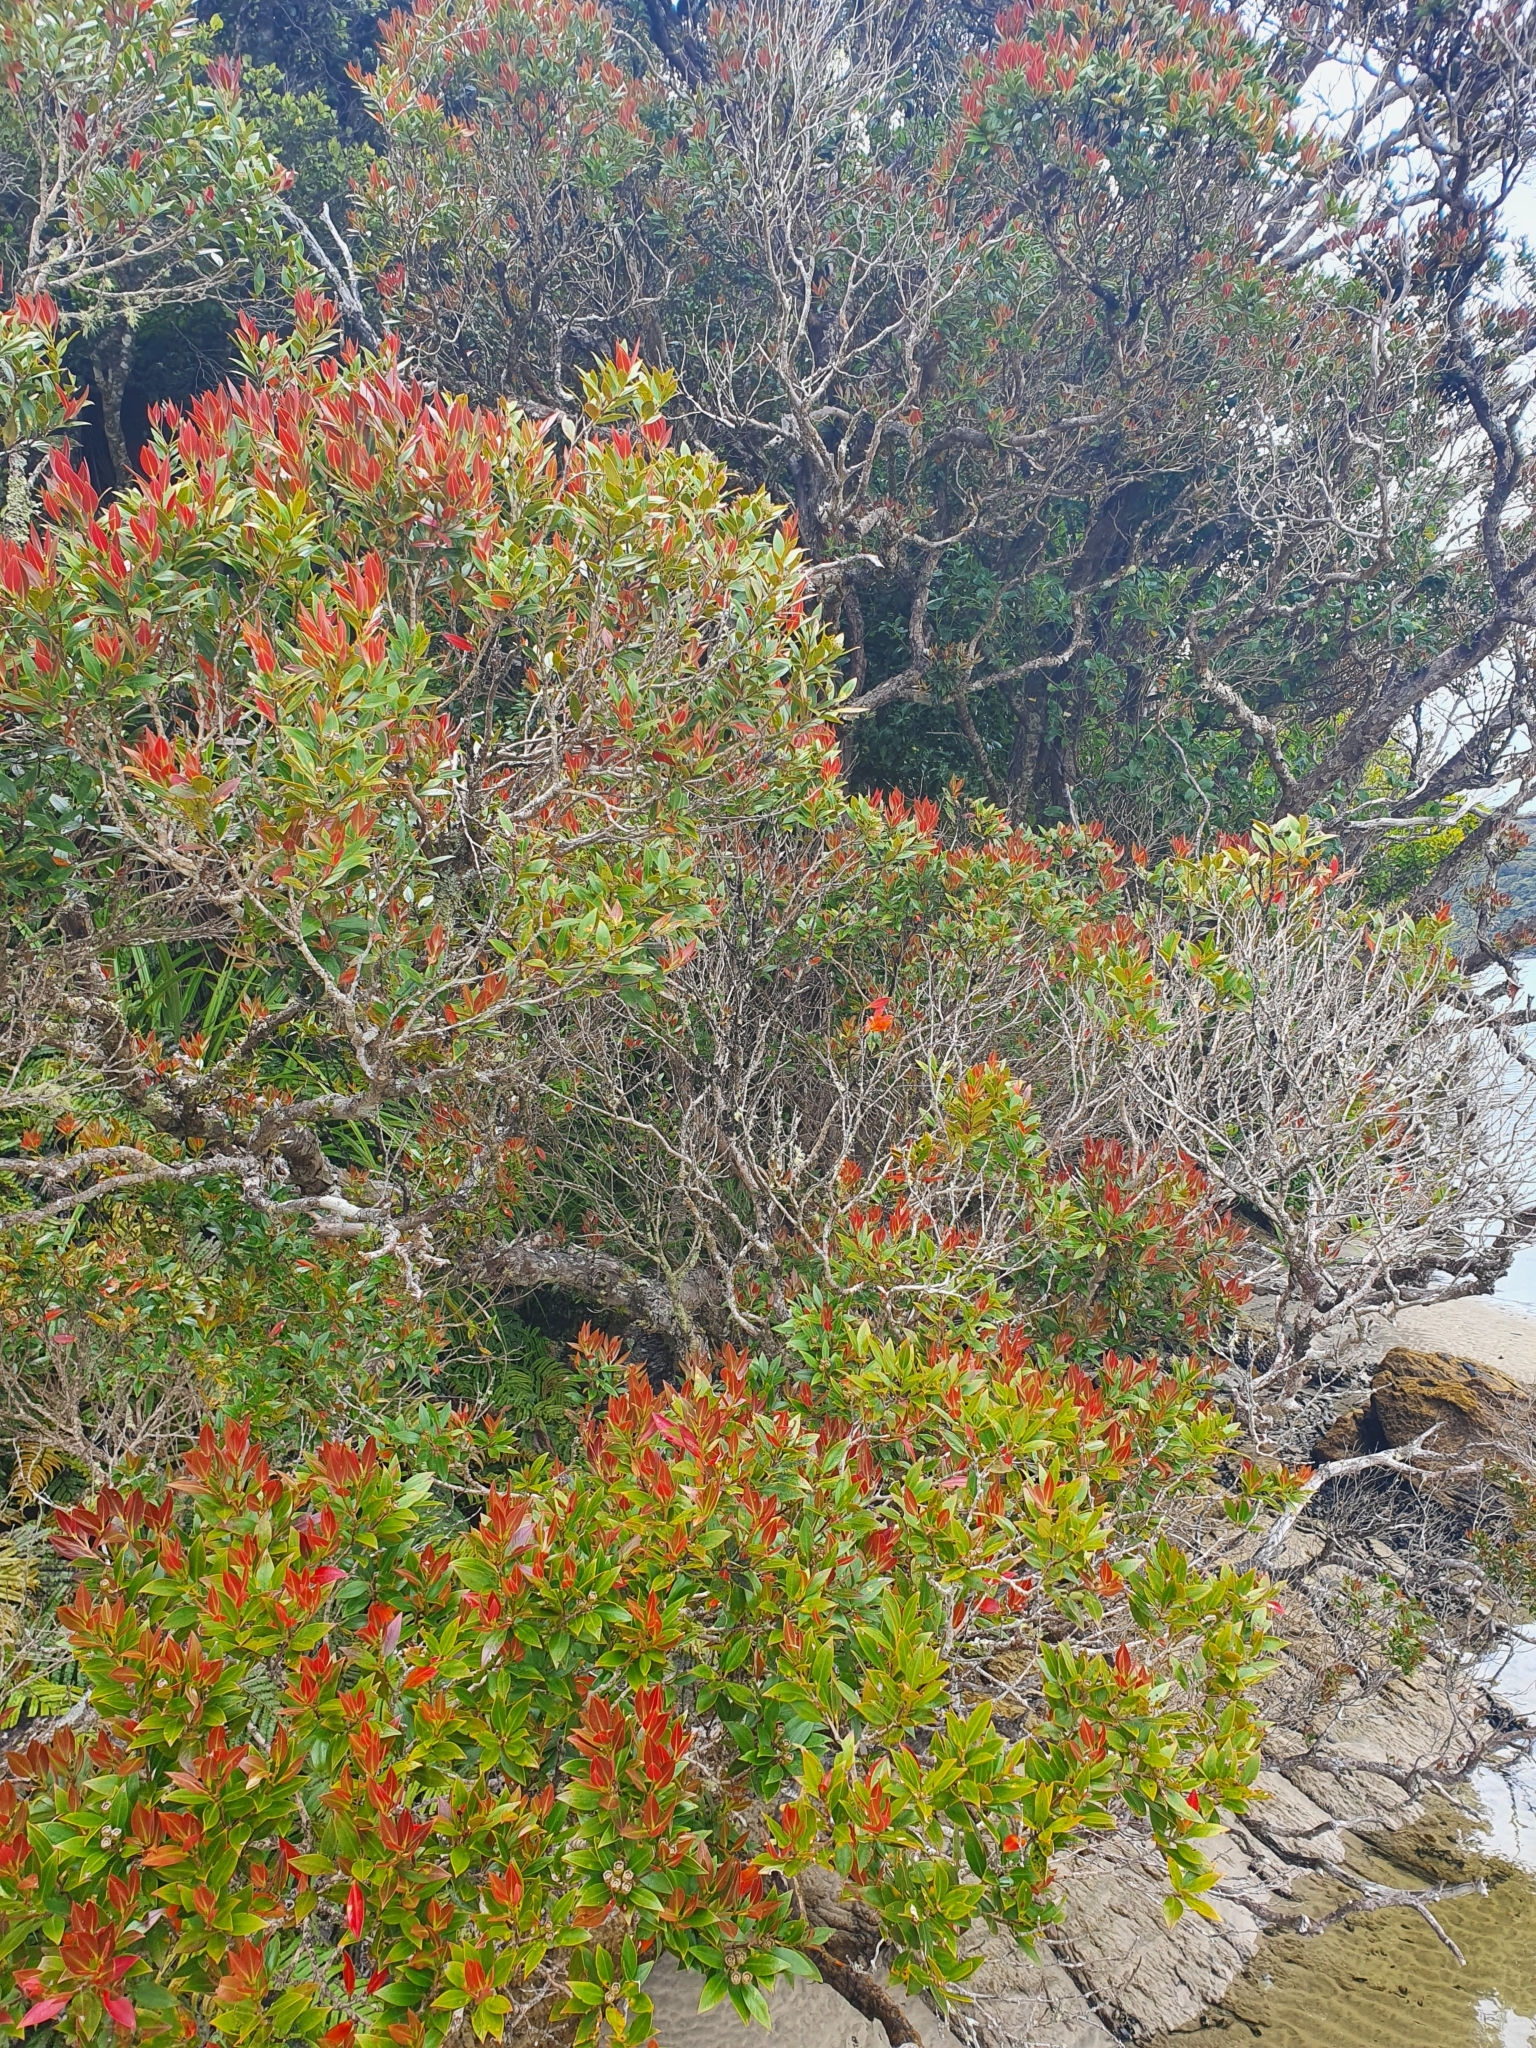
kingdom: Plantae
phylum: Tracheophyta
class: Magnoliopsida
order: Myrtales
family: Myrtaceae
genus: Metrosideros
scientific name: Metrosideros umbellata
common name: Southern rata
